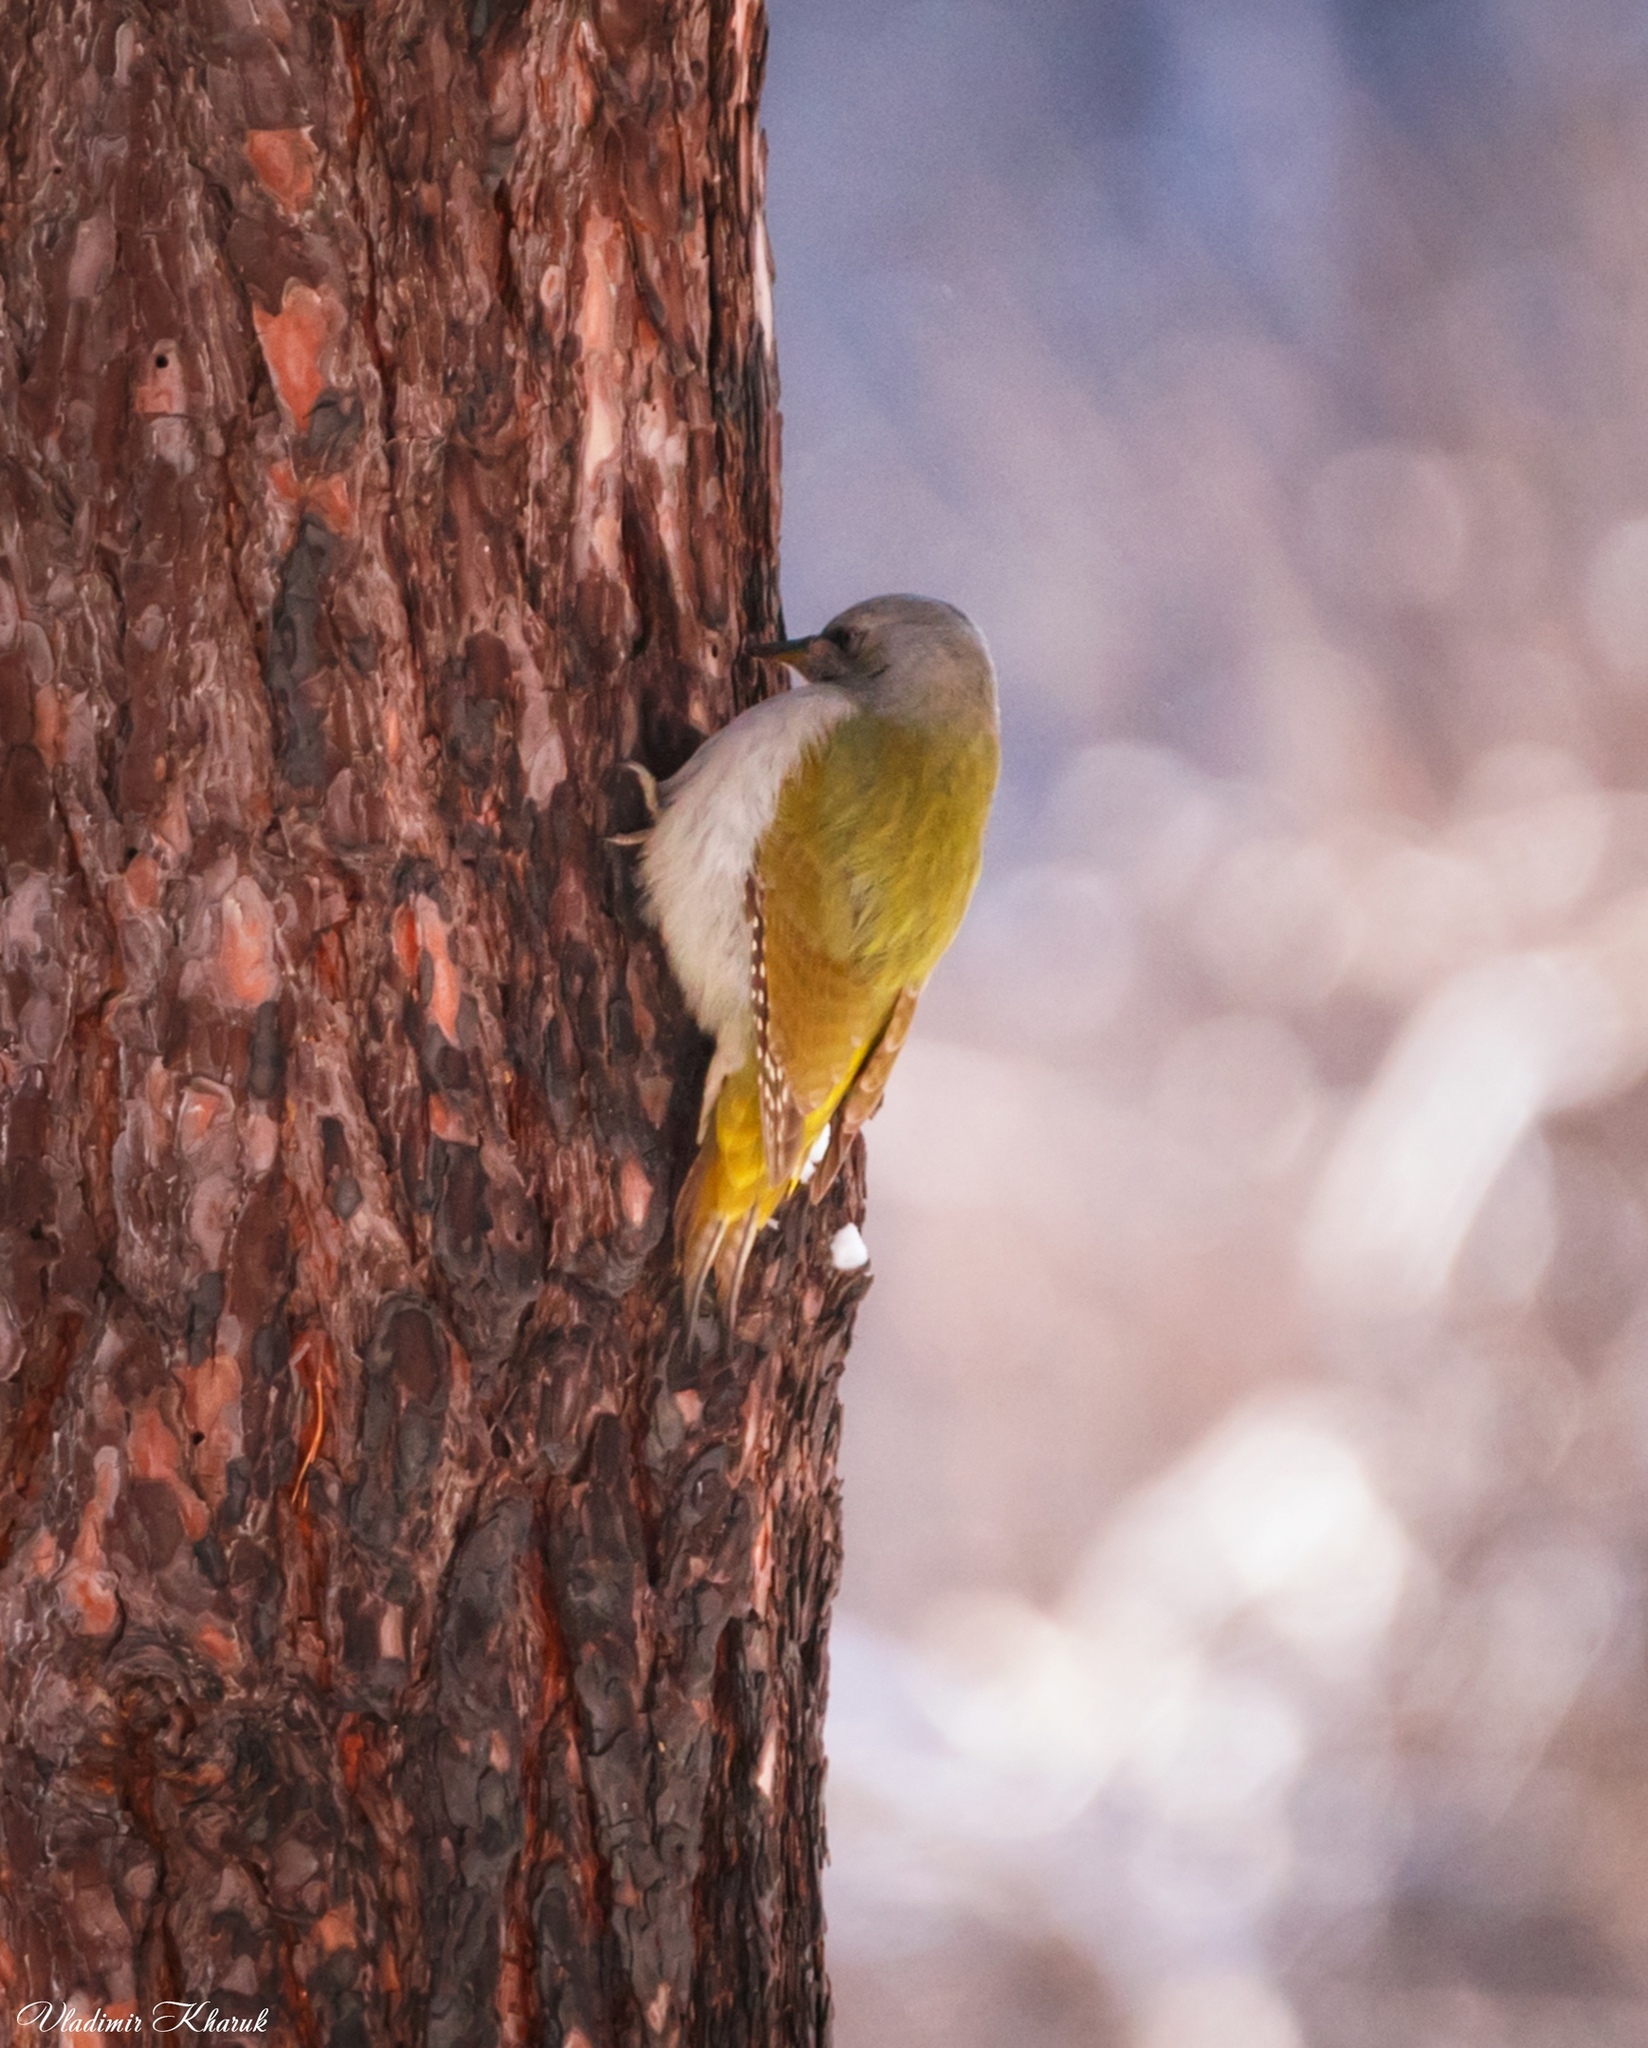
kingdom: Animalia
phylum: Chordata
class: Aves
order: Piciformes
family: Picidae
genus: Picus
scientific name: Picus canus
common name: Grey-headed woodpecker
